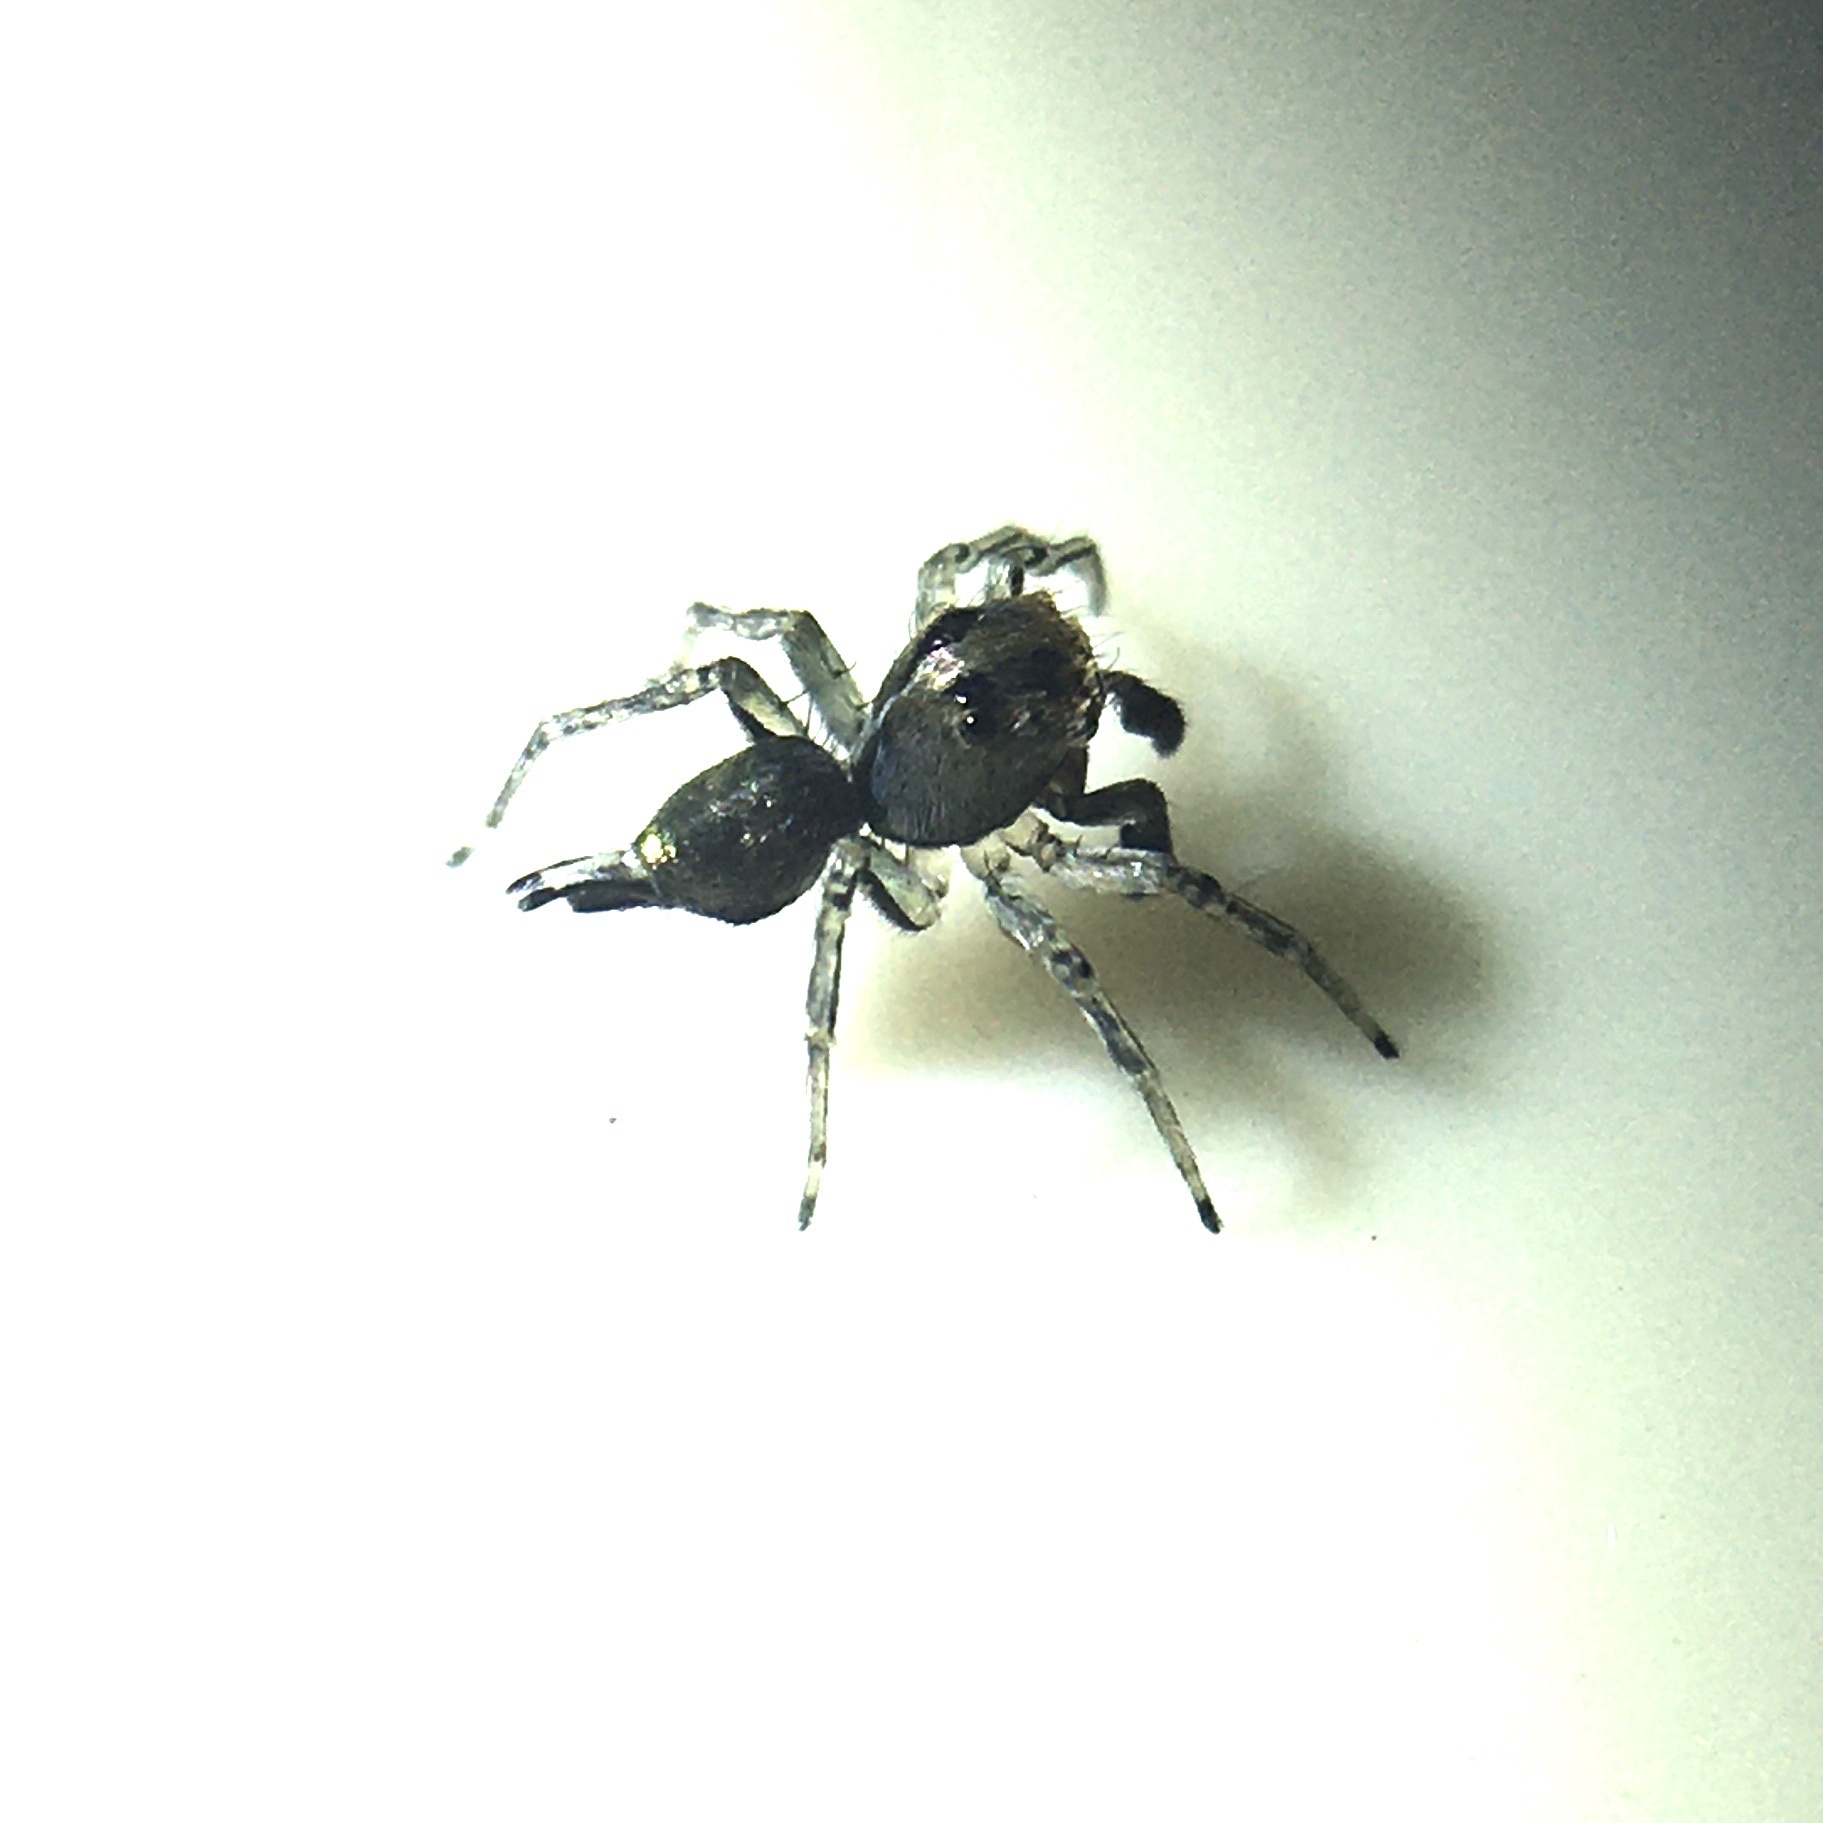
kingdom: Animalia
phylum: Arthropoda
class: Arachnida
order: Araneae
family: Salticidae
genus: Maeota
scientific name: Maeota dichrura
